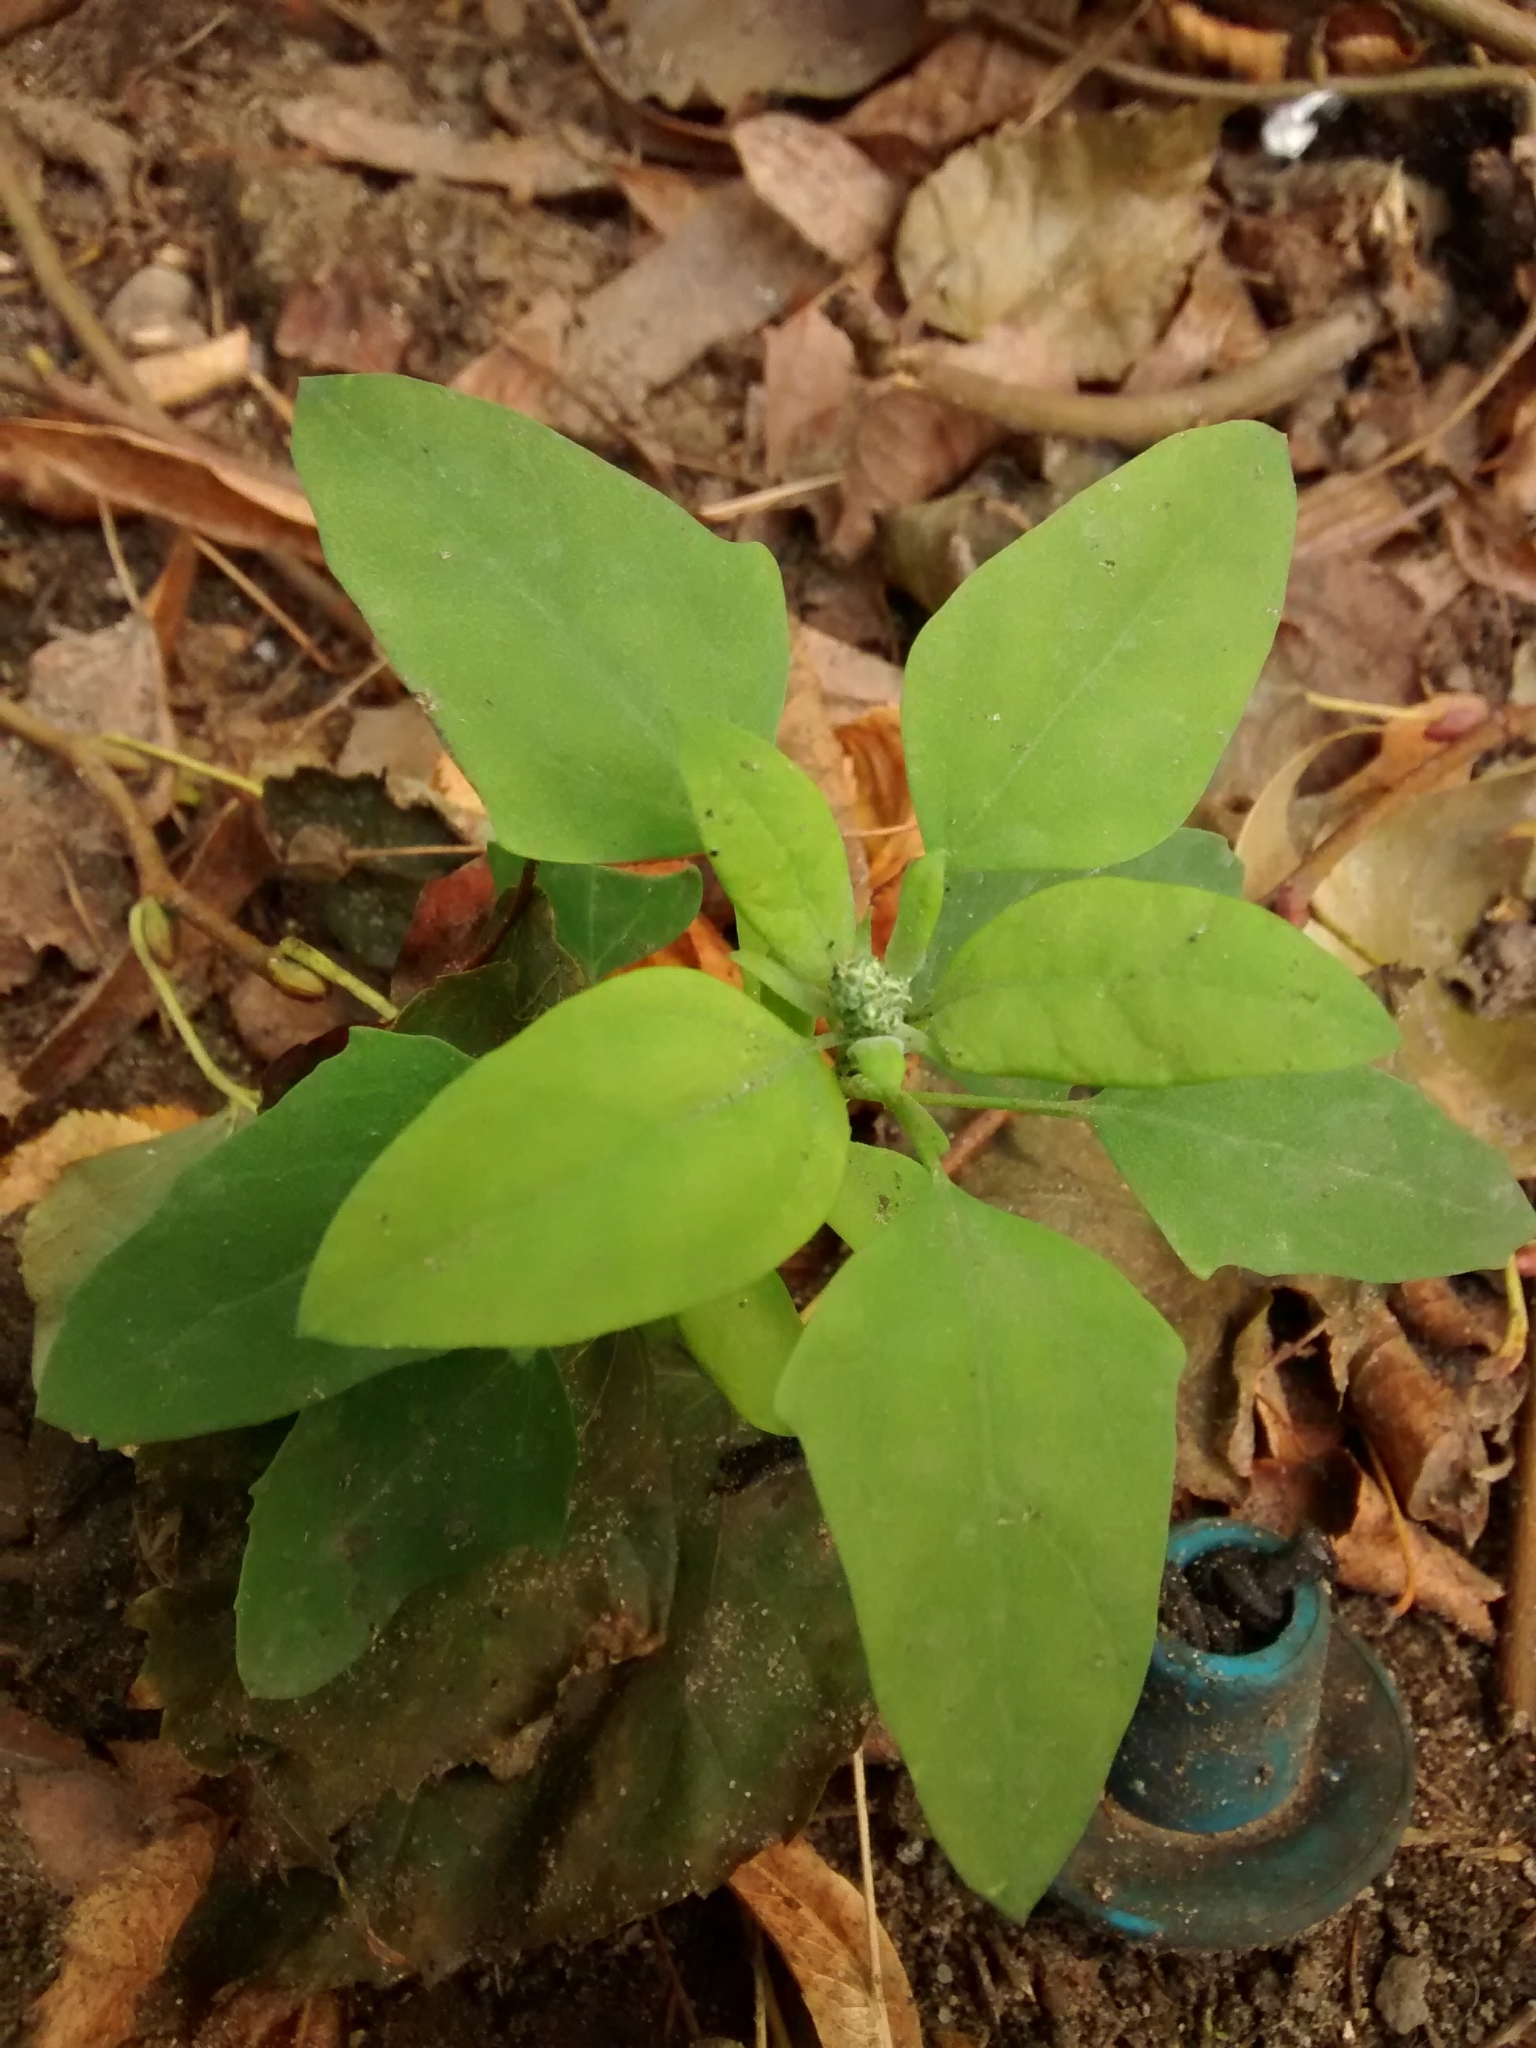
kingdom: Plantae
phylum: Tracheophyta
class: Magnoliopsida
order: Caryophyllales
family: Amaranthaceae
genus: Chenopodium
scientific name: Chenopodium album
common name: Fat-hen
